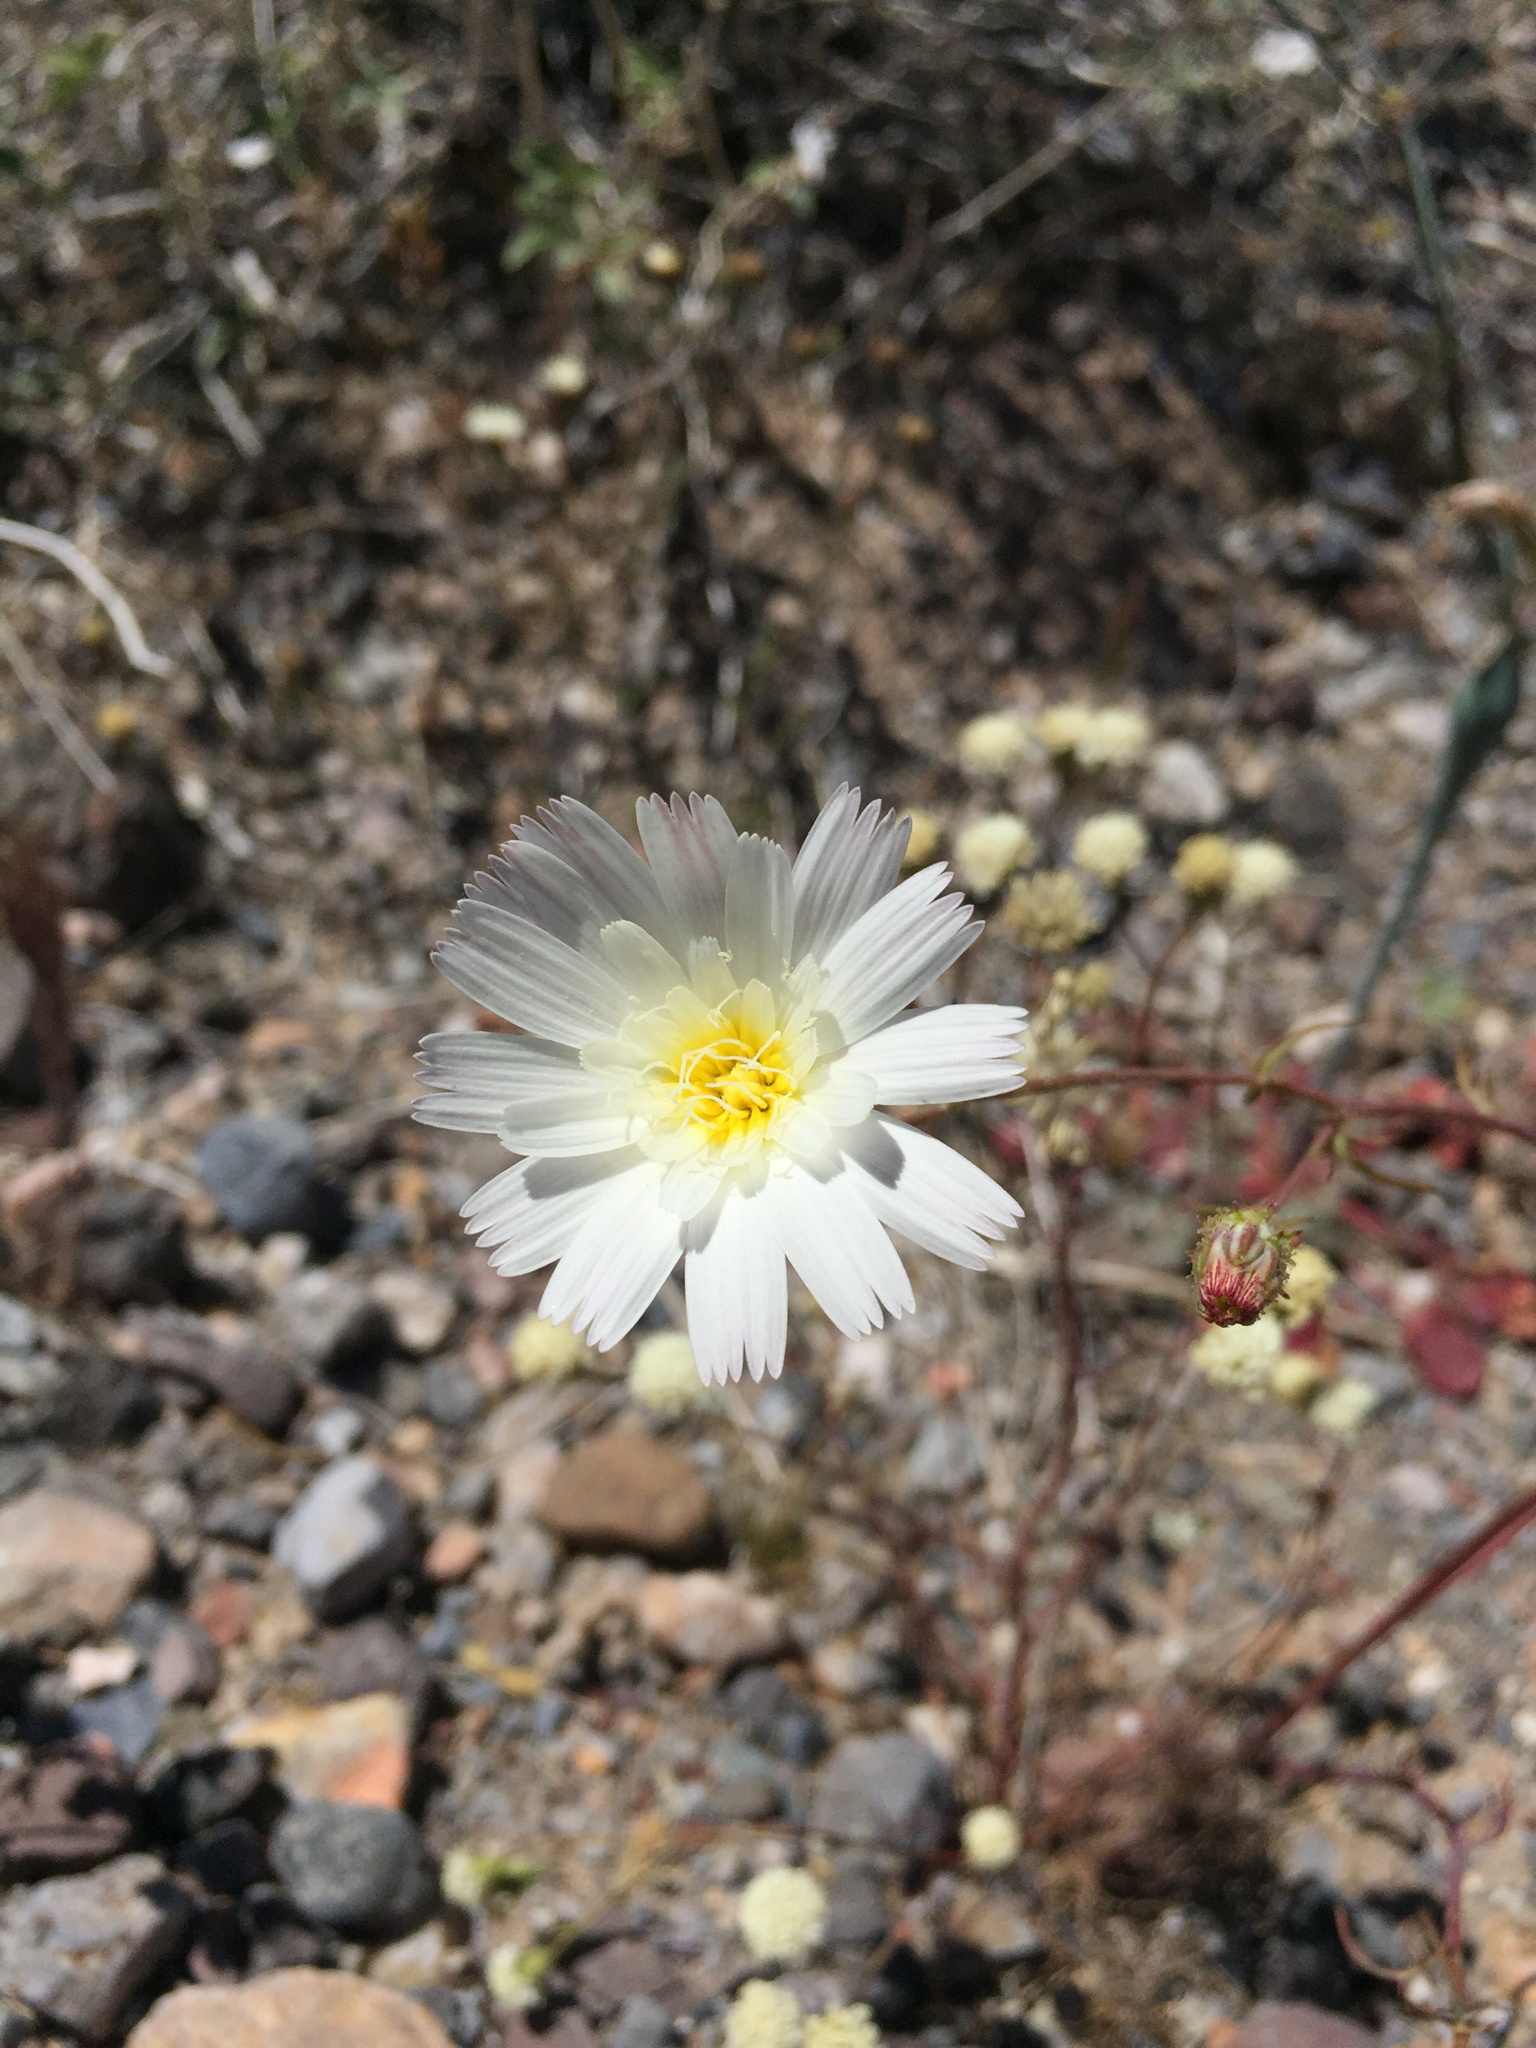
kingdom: Plantae
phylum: Tracheophyta
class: Magnoliopsida
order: Asterales
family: Asteraceae
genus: Atrichoseris
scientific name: Atrichoseris platyphylla
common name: Tobaccoweed
